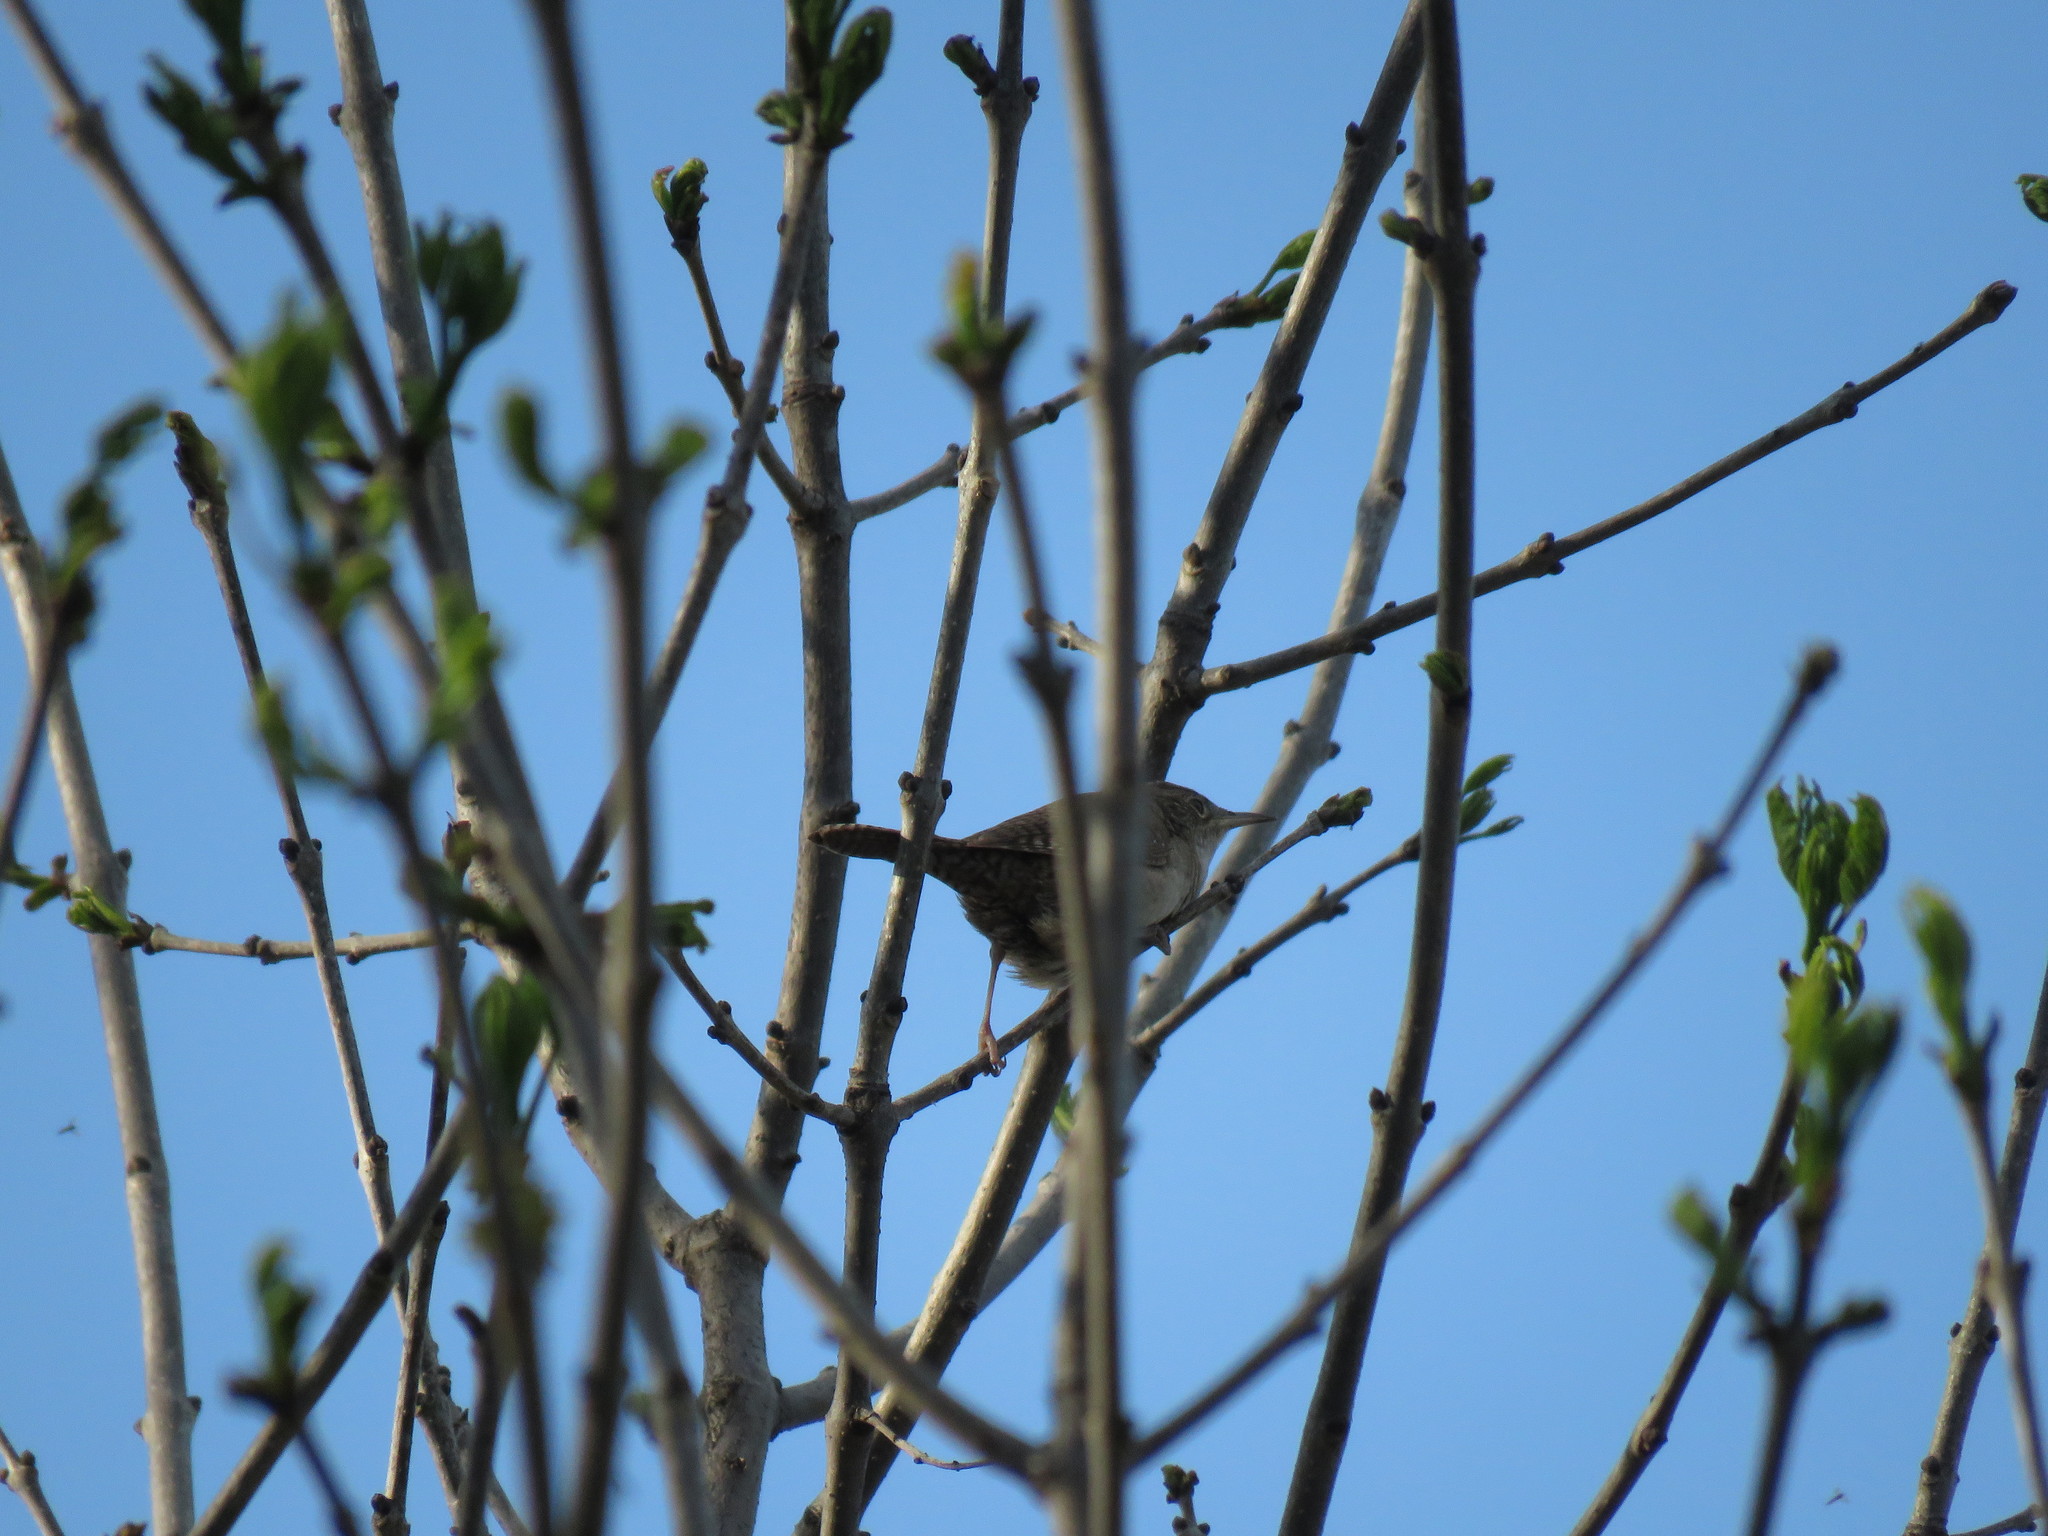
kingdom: Animalia
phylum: Chordata
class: Aves
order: Passeriformes
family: Troglodytidae
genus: Troglodytes
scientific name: Troglodytes aedon
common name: House wren
